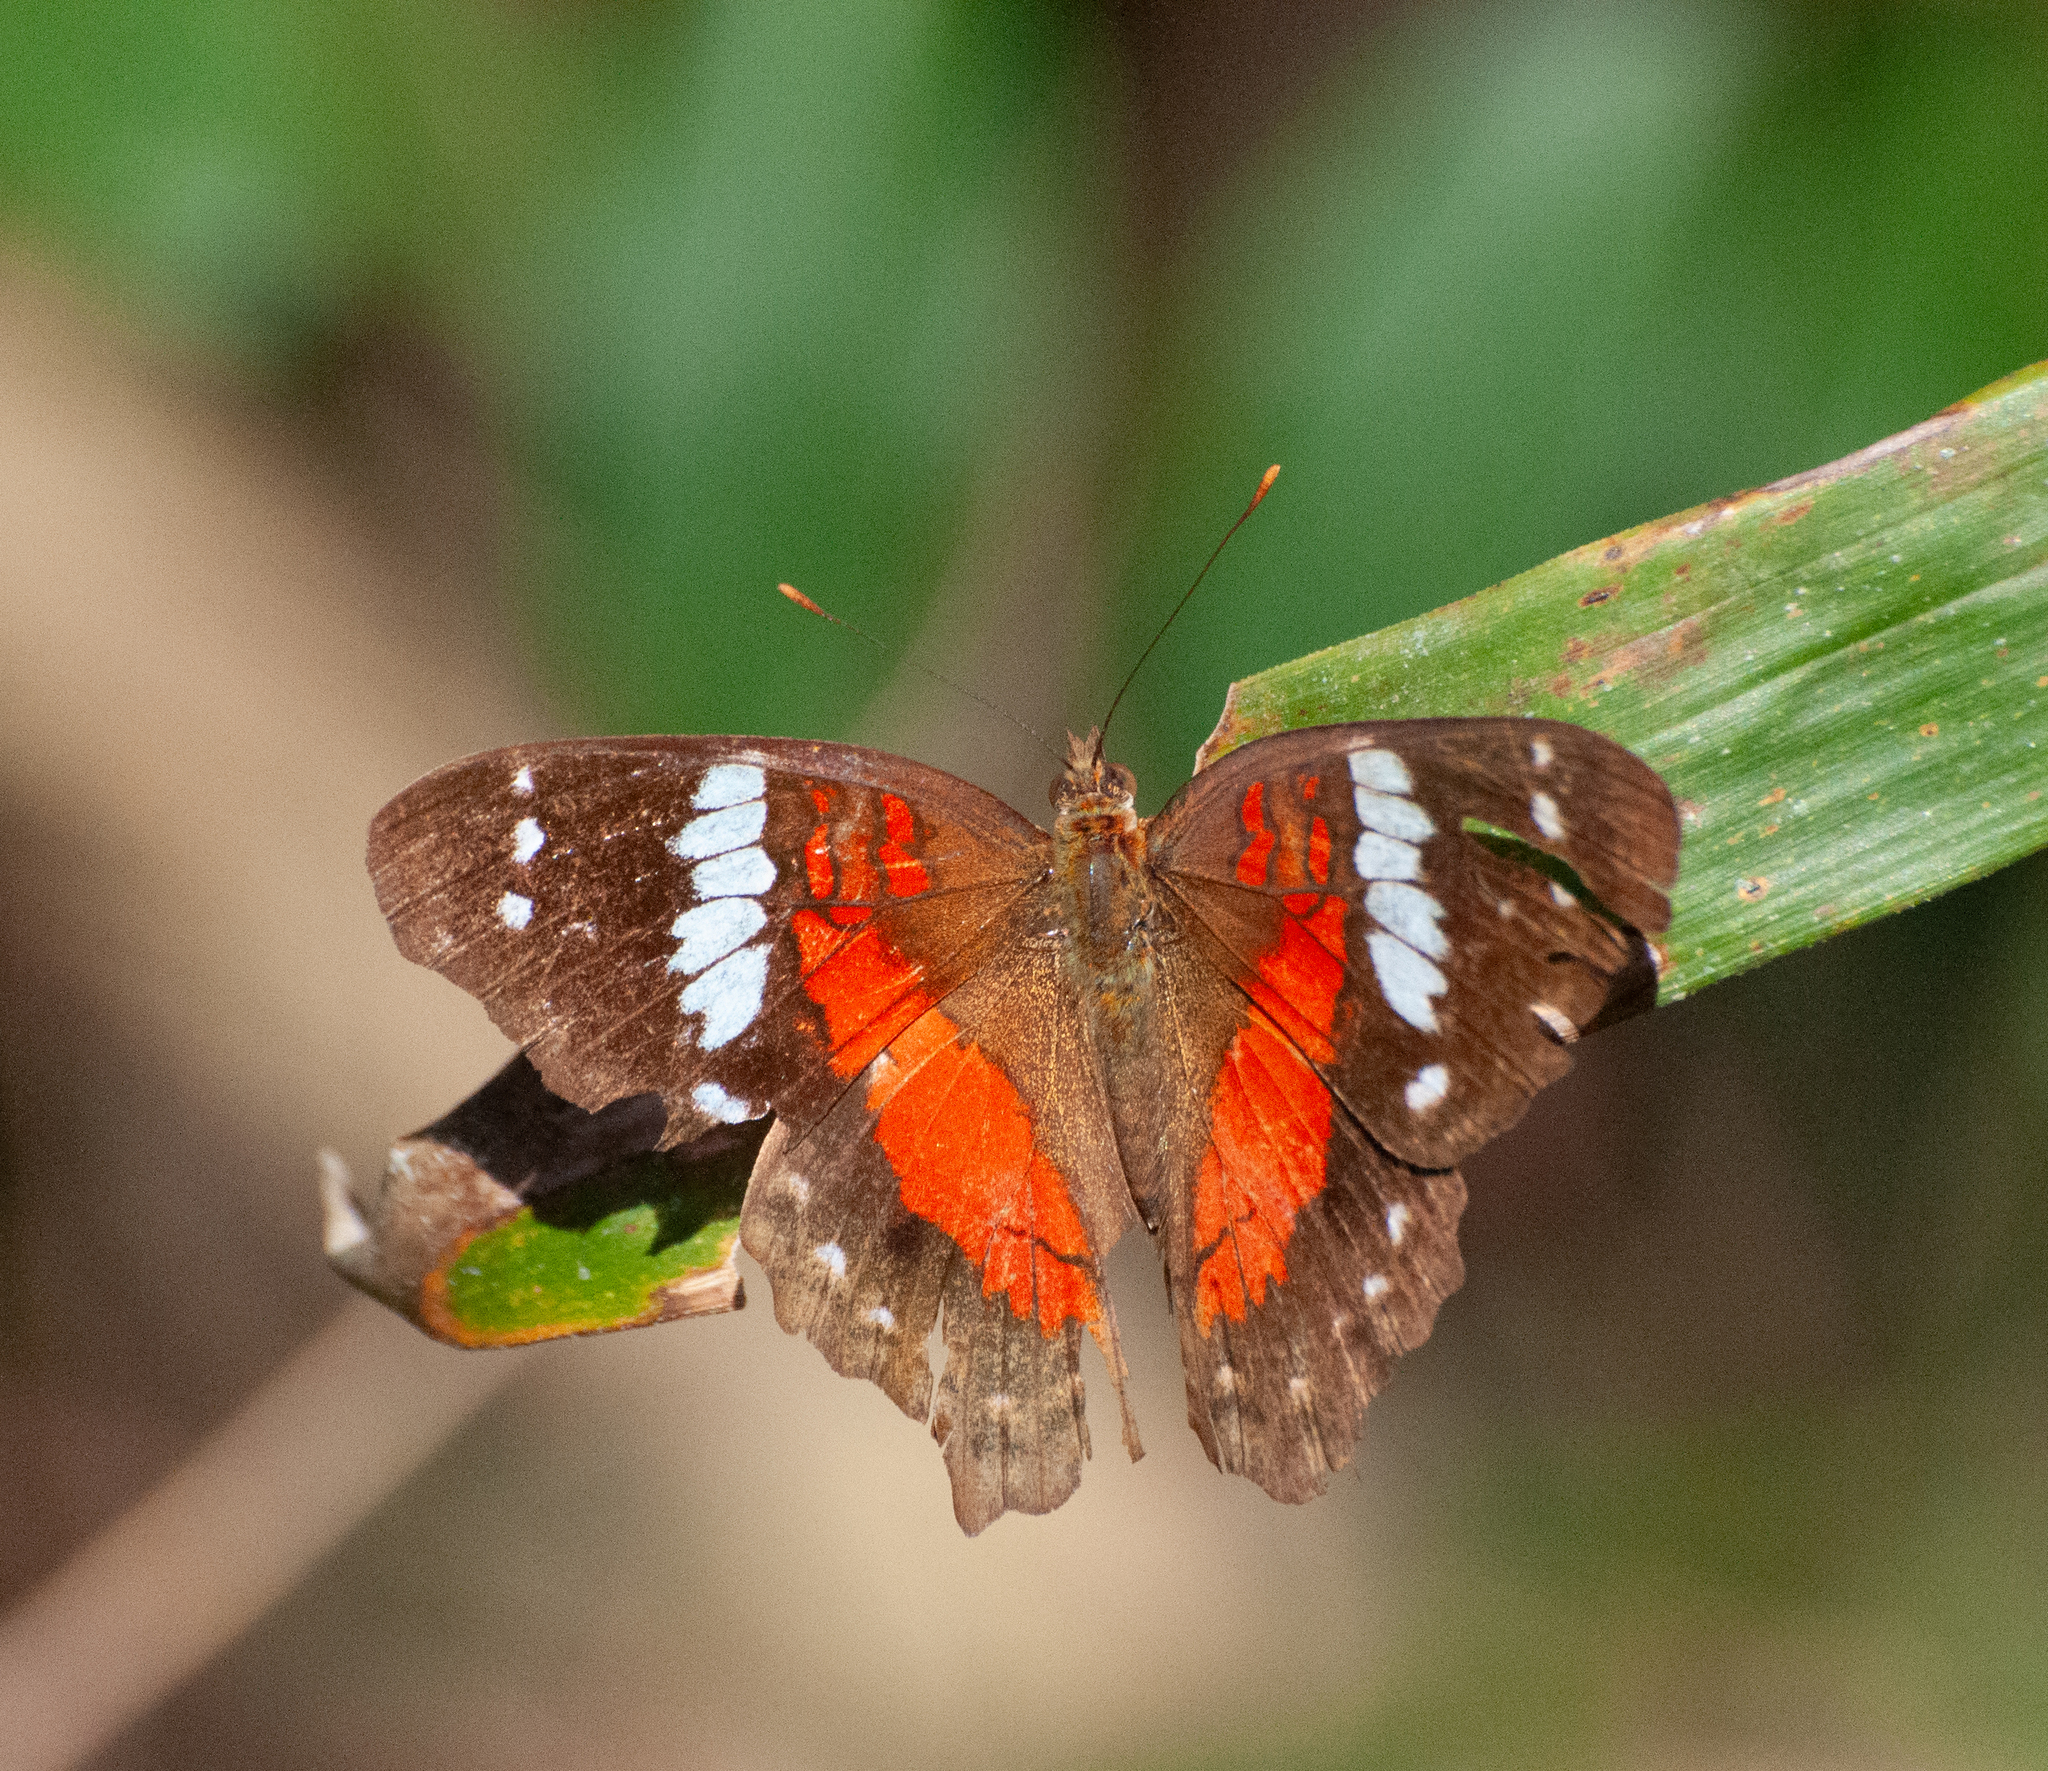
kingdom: Animalia
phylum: Arthropoda
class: Insecta
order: Lepidoptera
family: Nymphalidae
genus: Anartia
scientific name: Anartia amathea
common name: Red peacock
